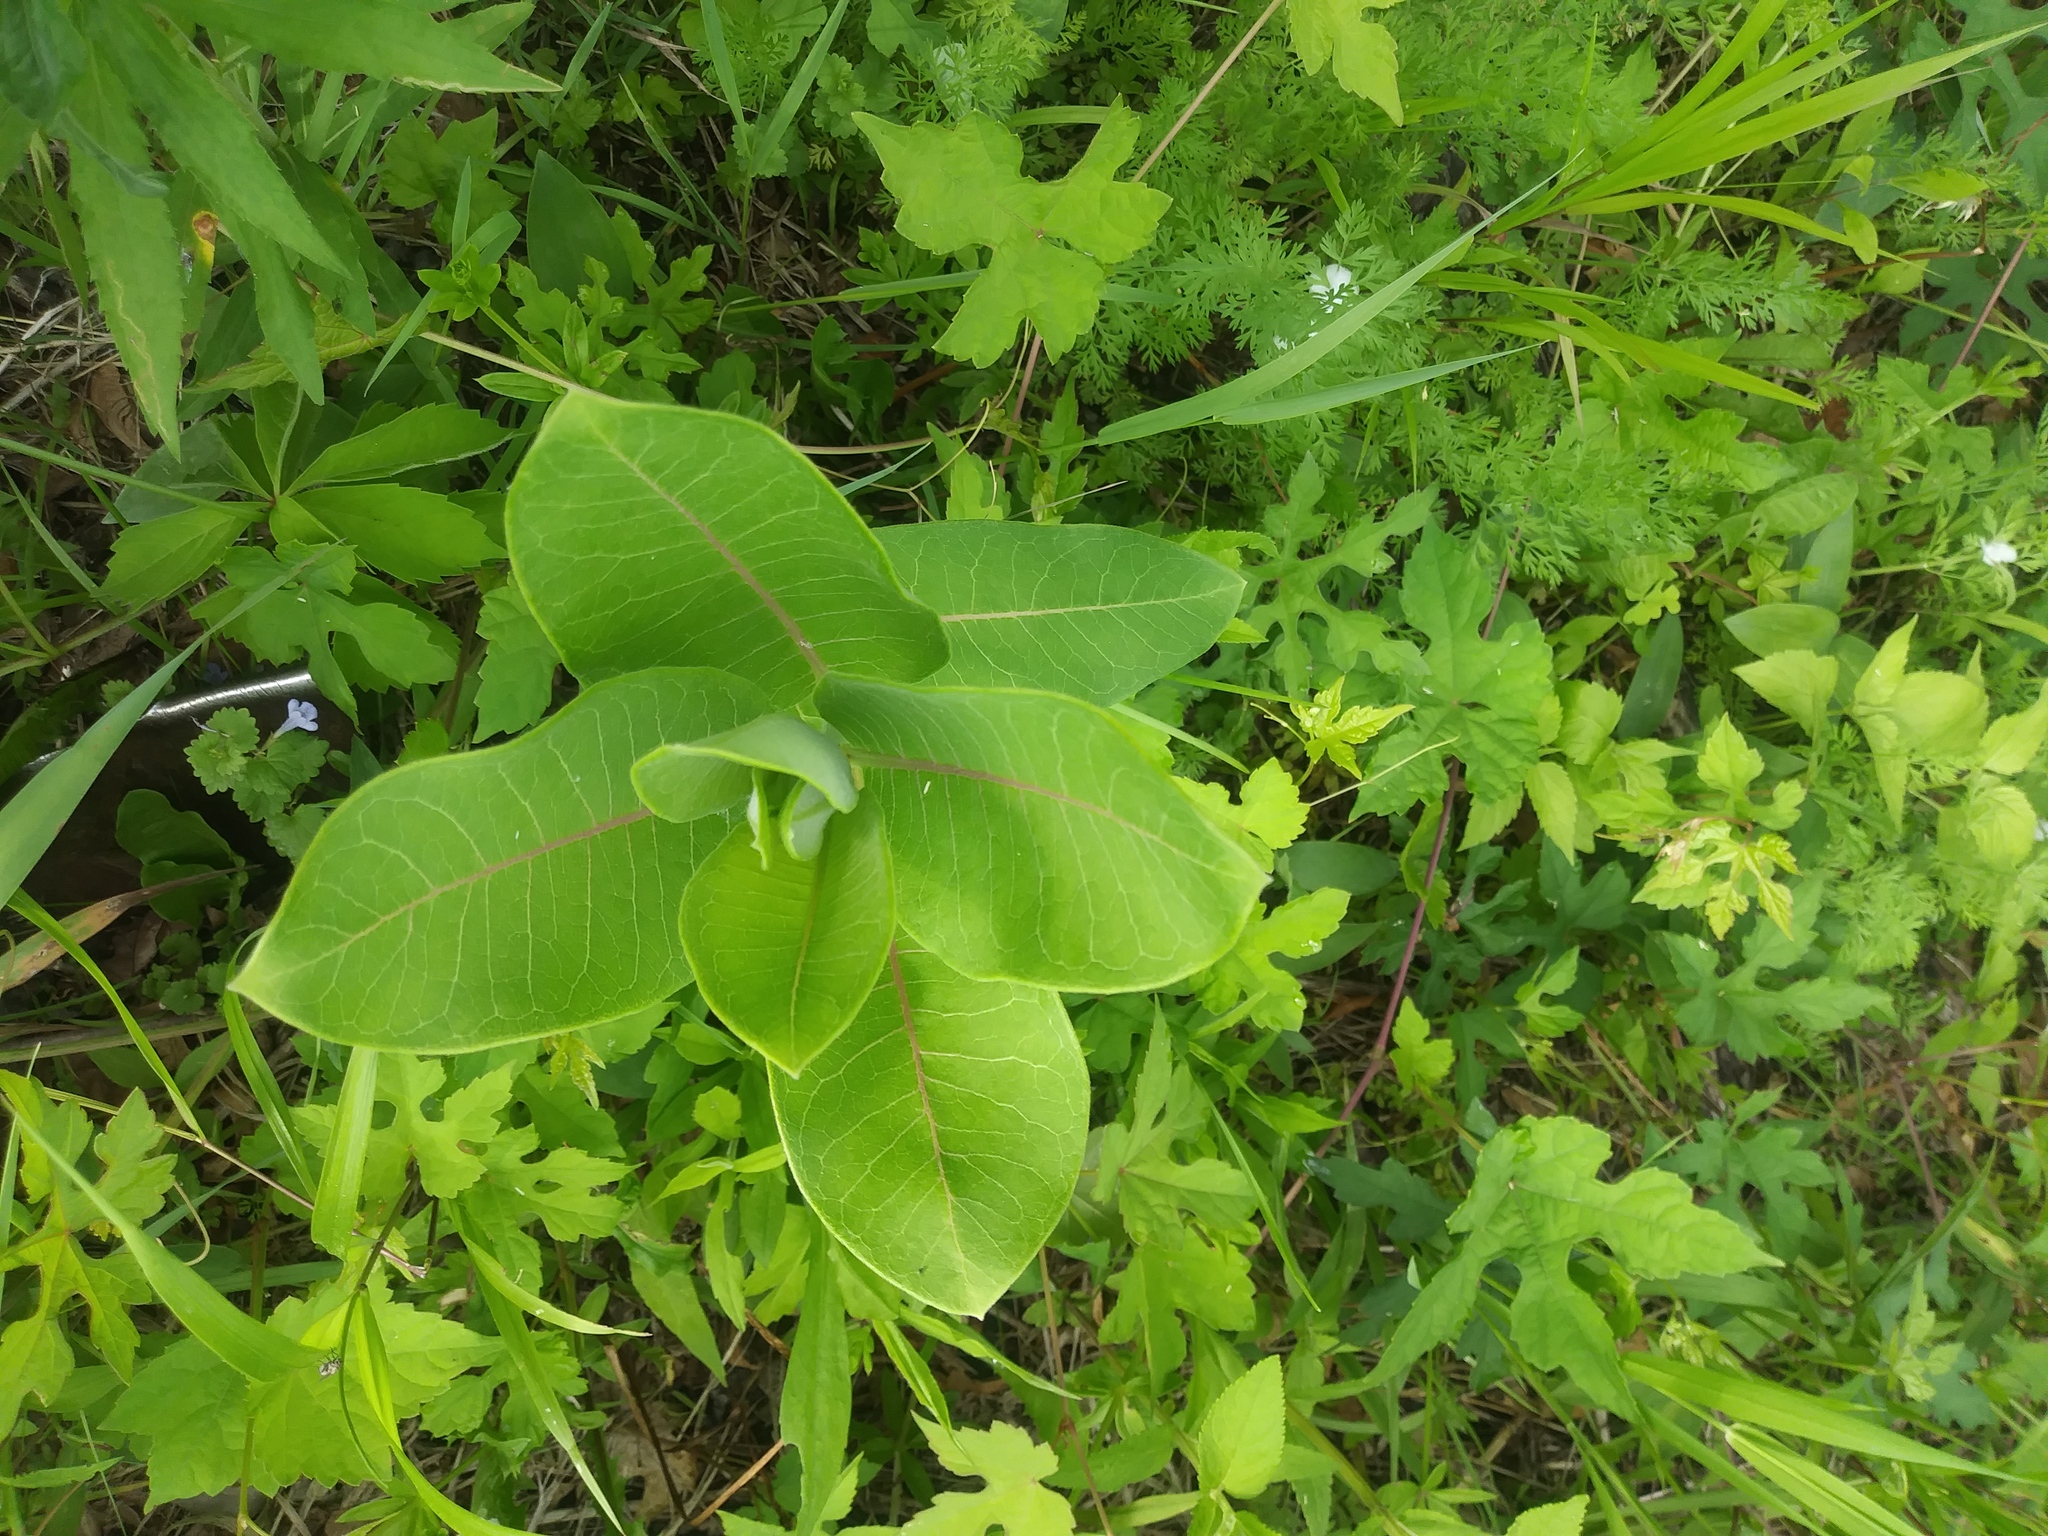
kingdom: Plantae
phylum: Tracheophyta
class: Magnoliopsida
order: Gentianales
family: Apocynaceae
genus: Asclepias
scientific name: Asclepias syriaca
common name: Common milkweed
